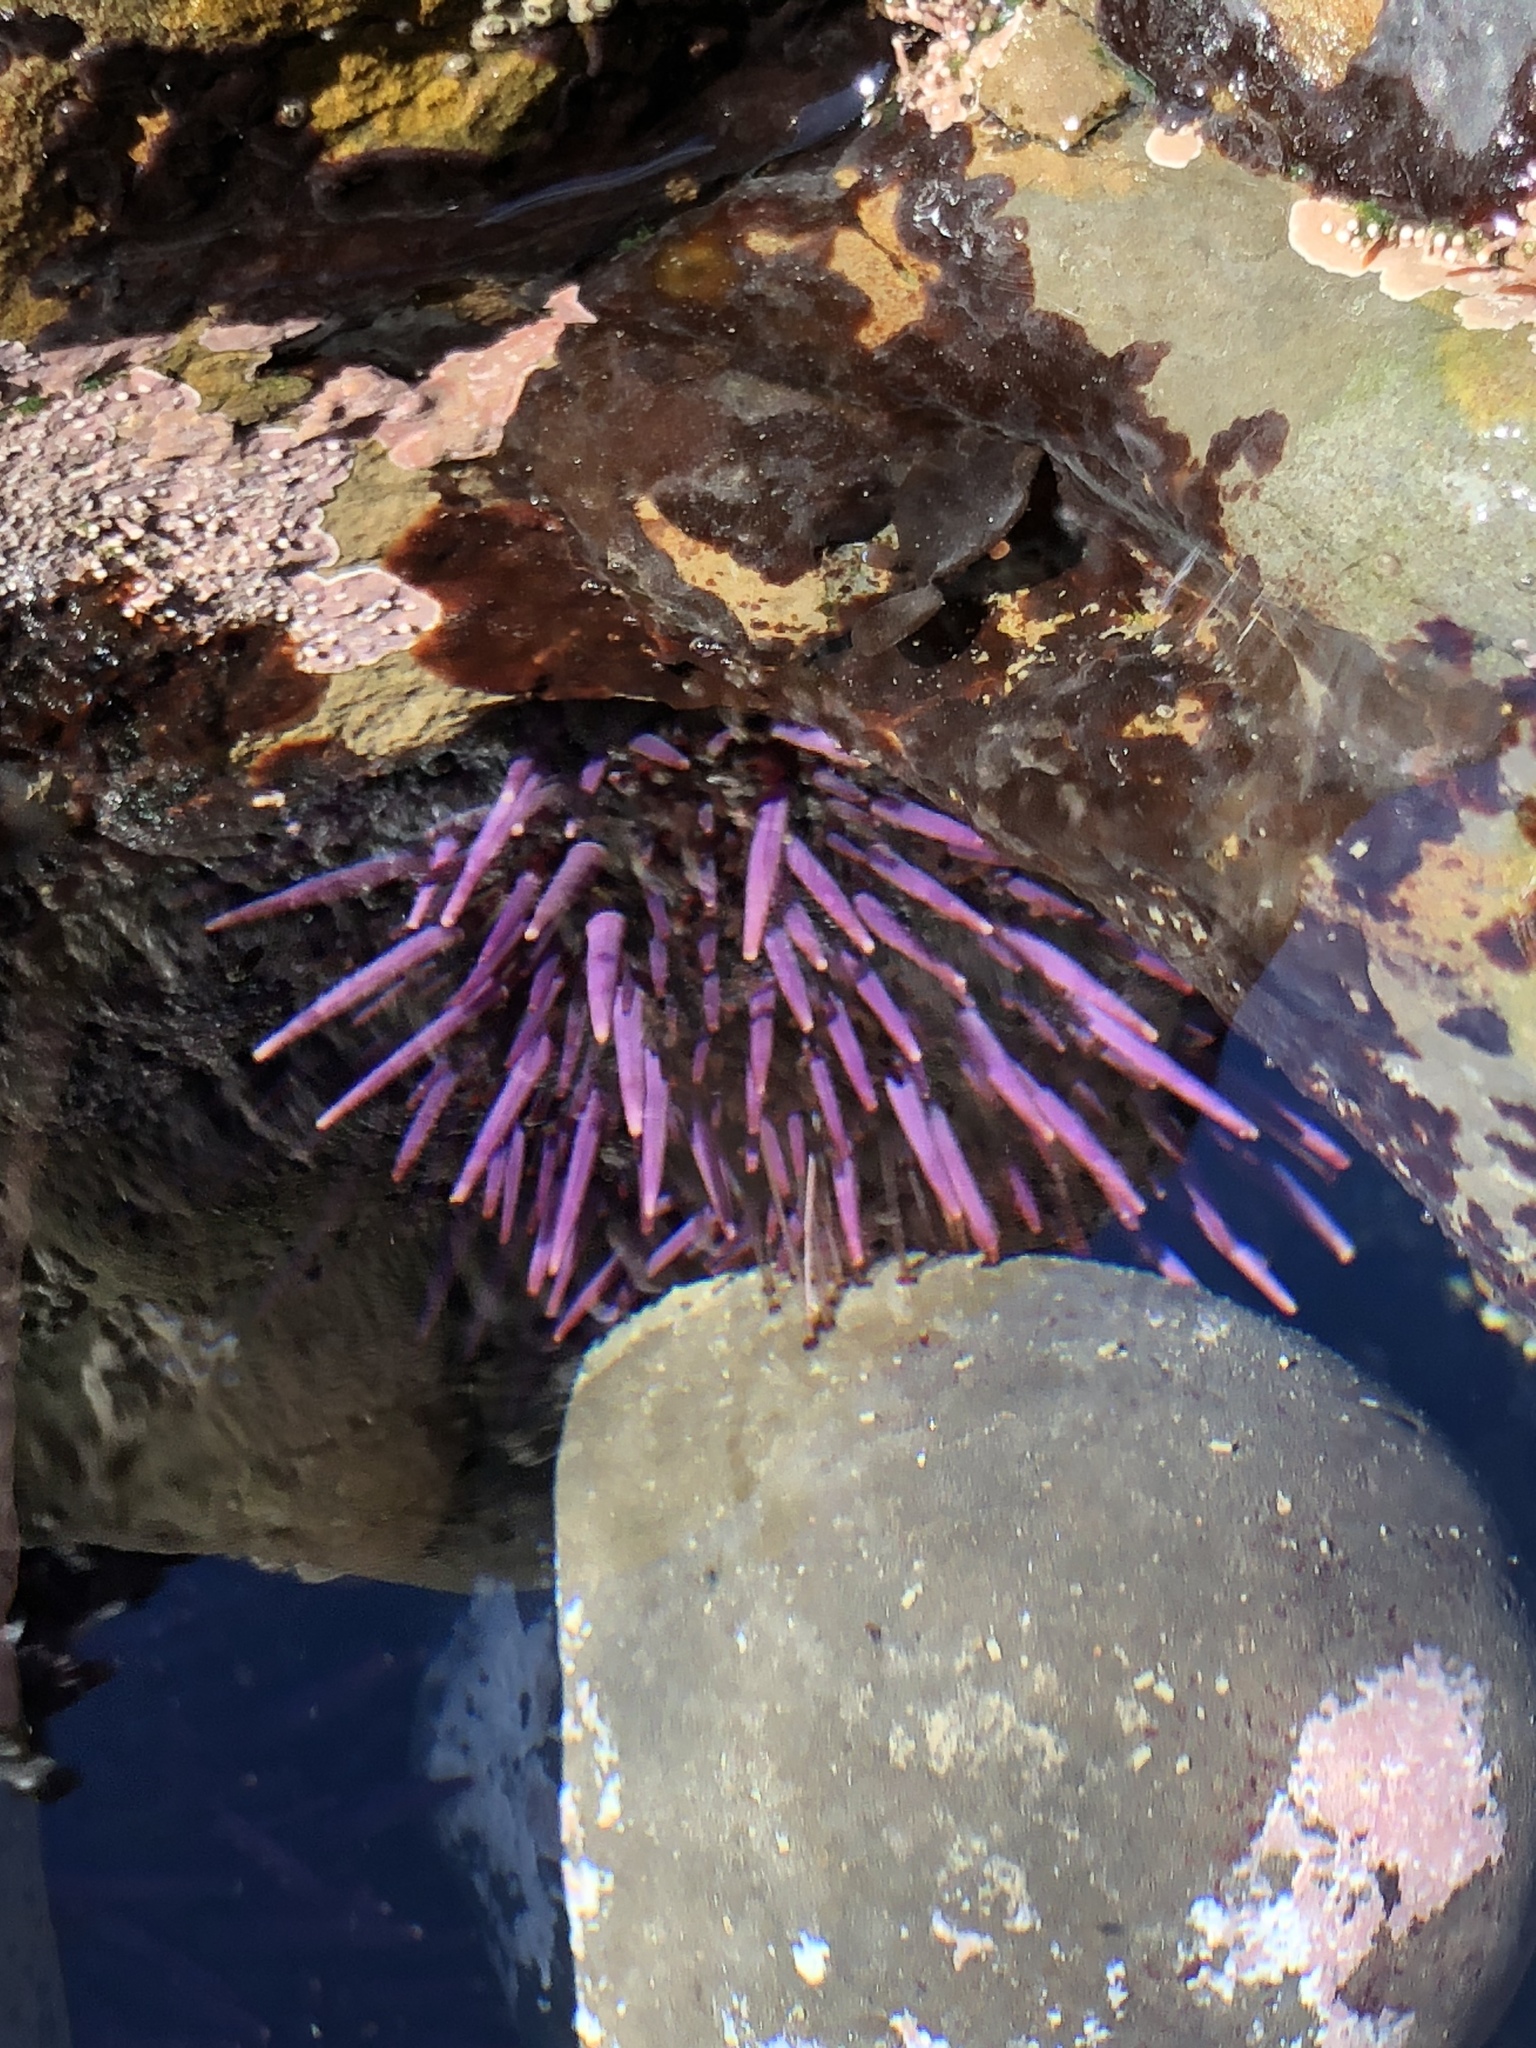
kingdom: Animalia
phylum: Echinodermata
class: Echinoidea
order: Camarodonta
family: Strongylocentrotidae
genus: Strongylocentrotus
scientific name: Strongylocentrotus purpuratus
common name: Purple sea urchin
